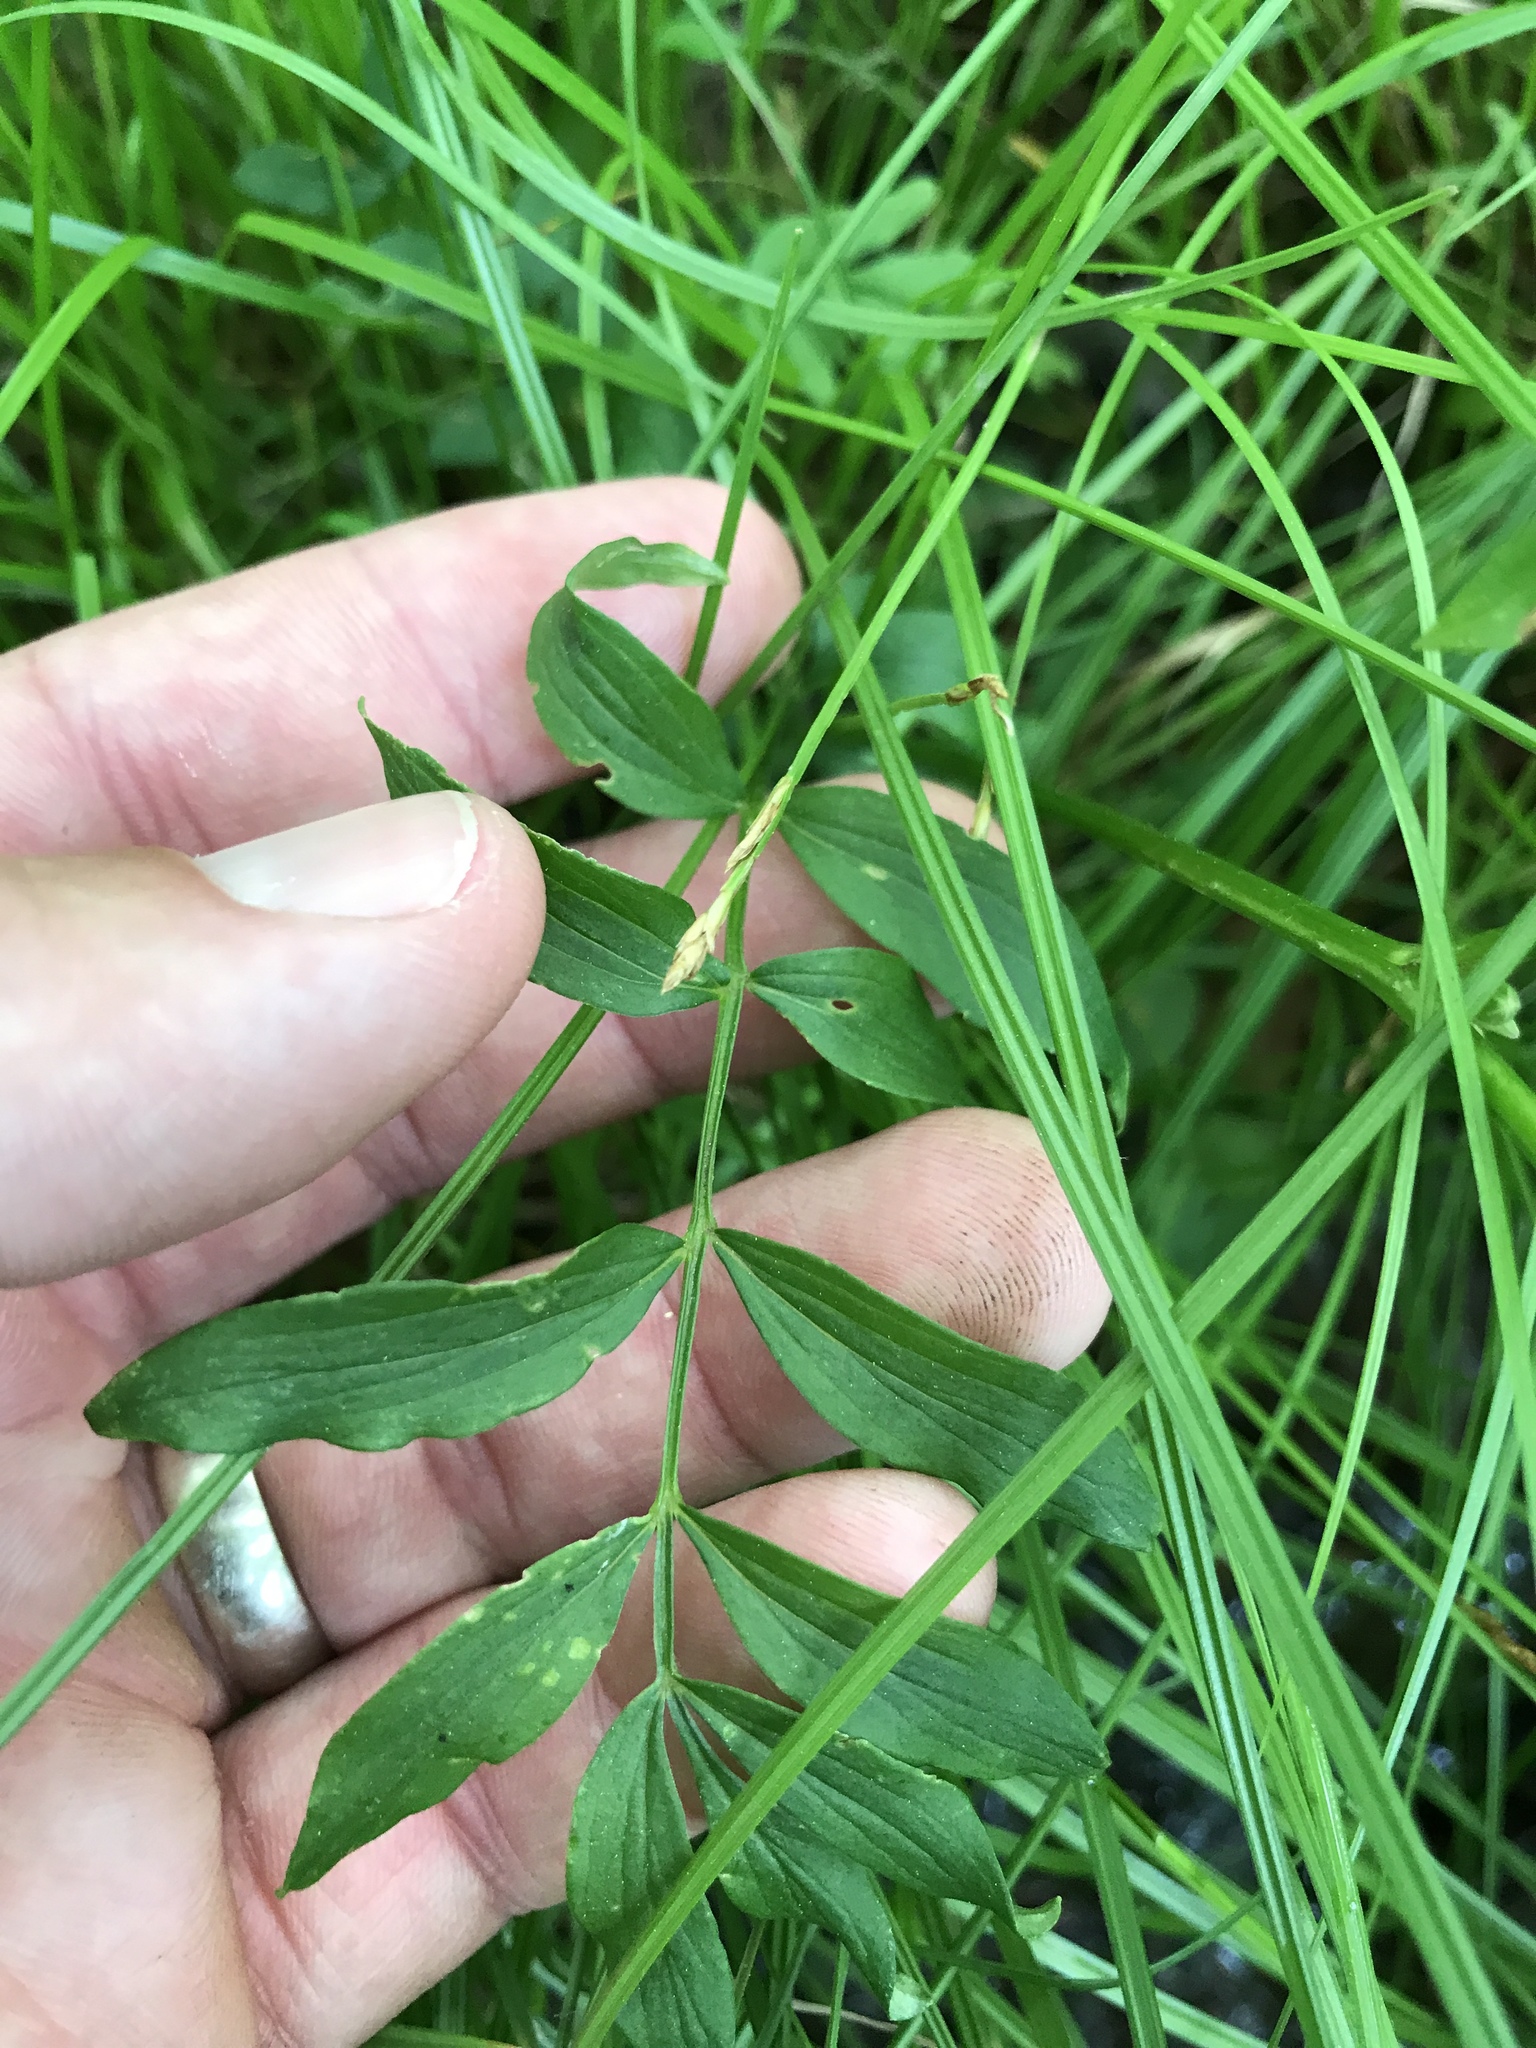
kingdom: Plantae
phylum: Tracheophyta
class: Magnoliopsida
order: Ericales
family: Polemoniaceae
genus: Polemonium
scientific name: Polemonium reptans
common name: Creeping jacob's-ladder
